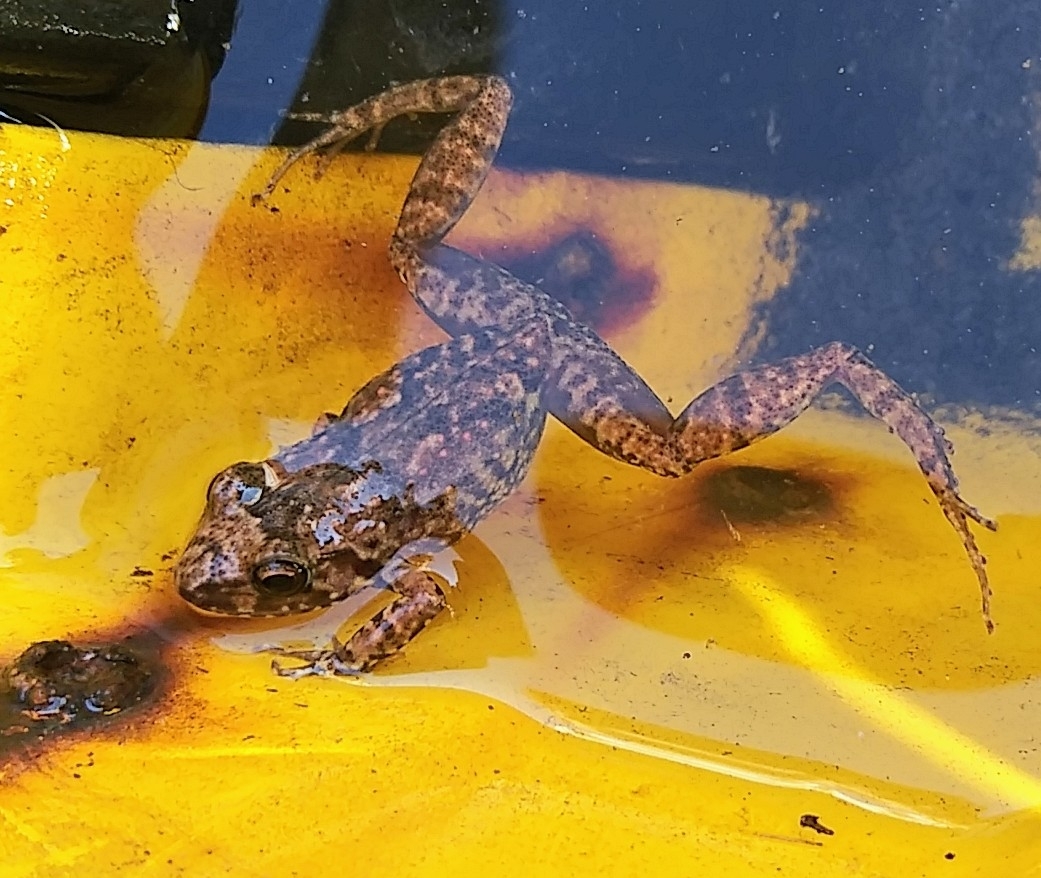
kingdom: Animalia
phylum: Chordata
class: Amphibia
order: Anura
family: Eleutherodactylidae
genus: Eleutherodactylus
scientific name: Eleutherodactylus planirostris
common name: Greenhouse frog
